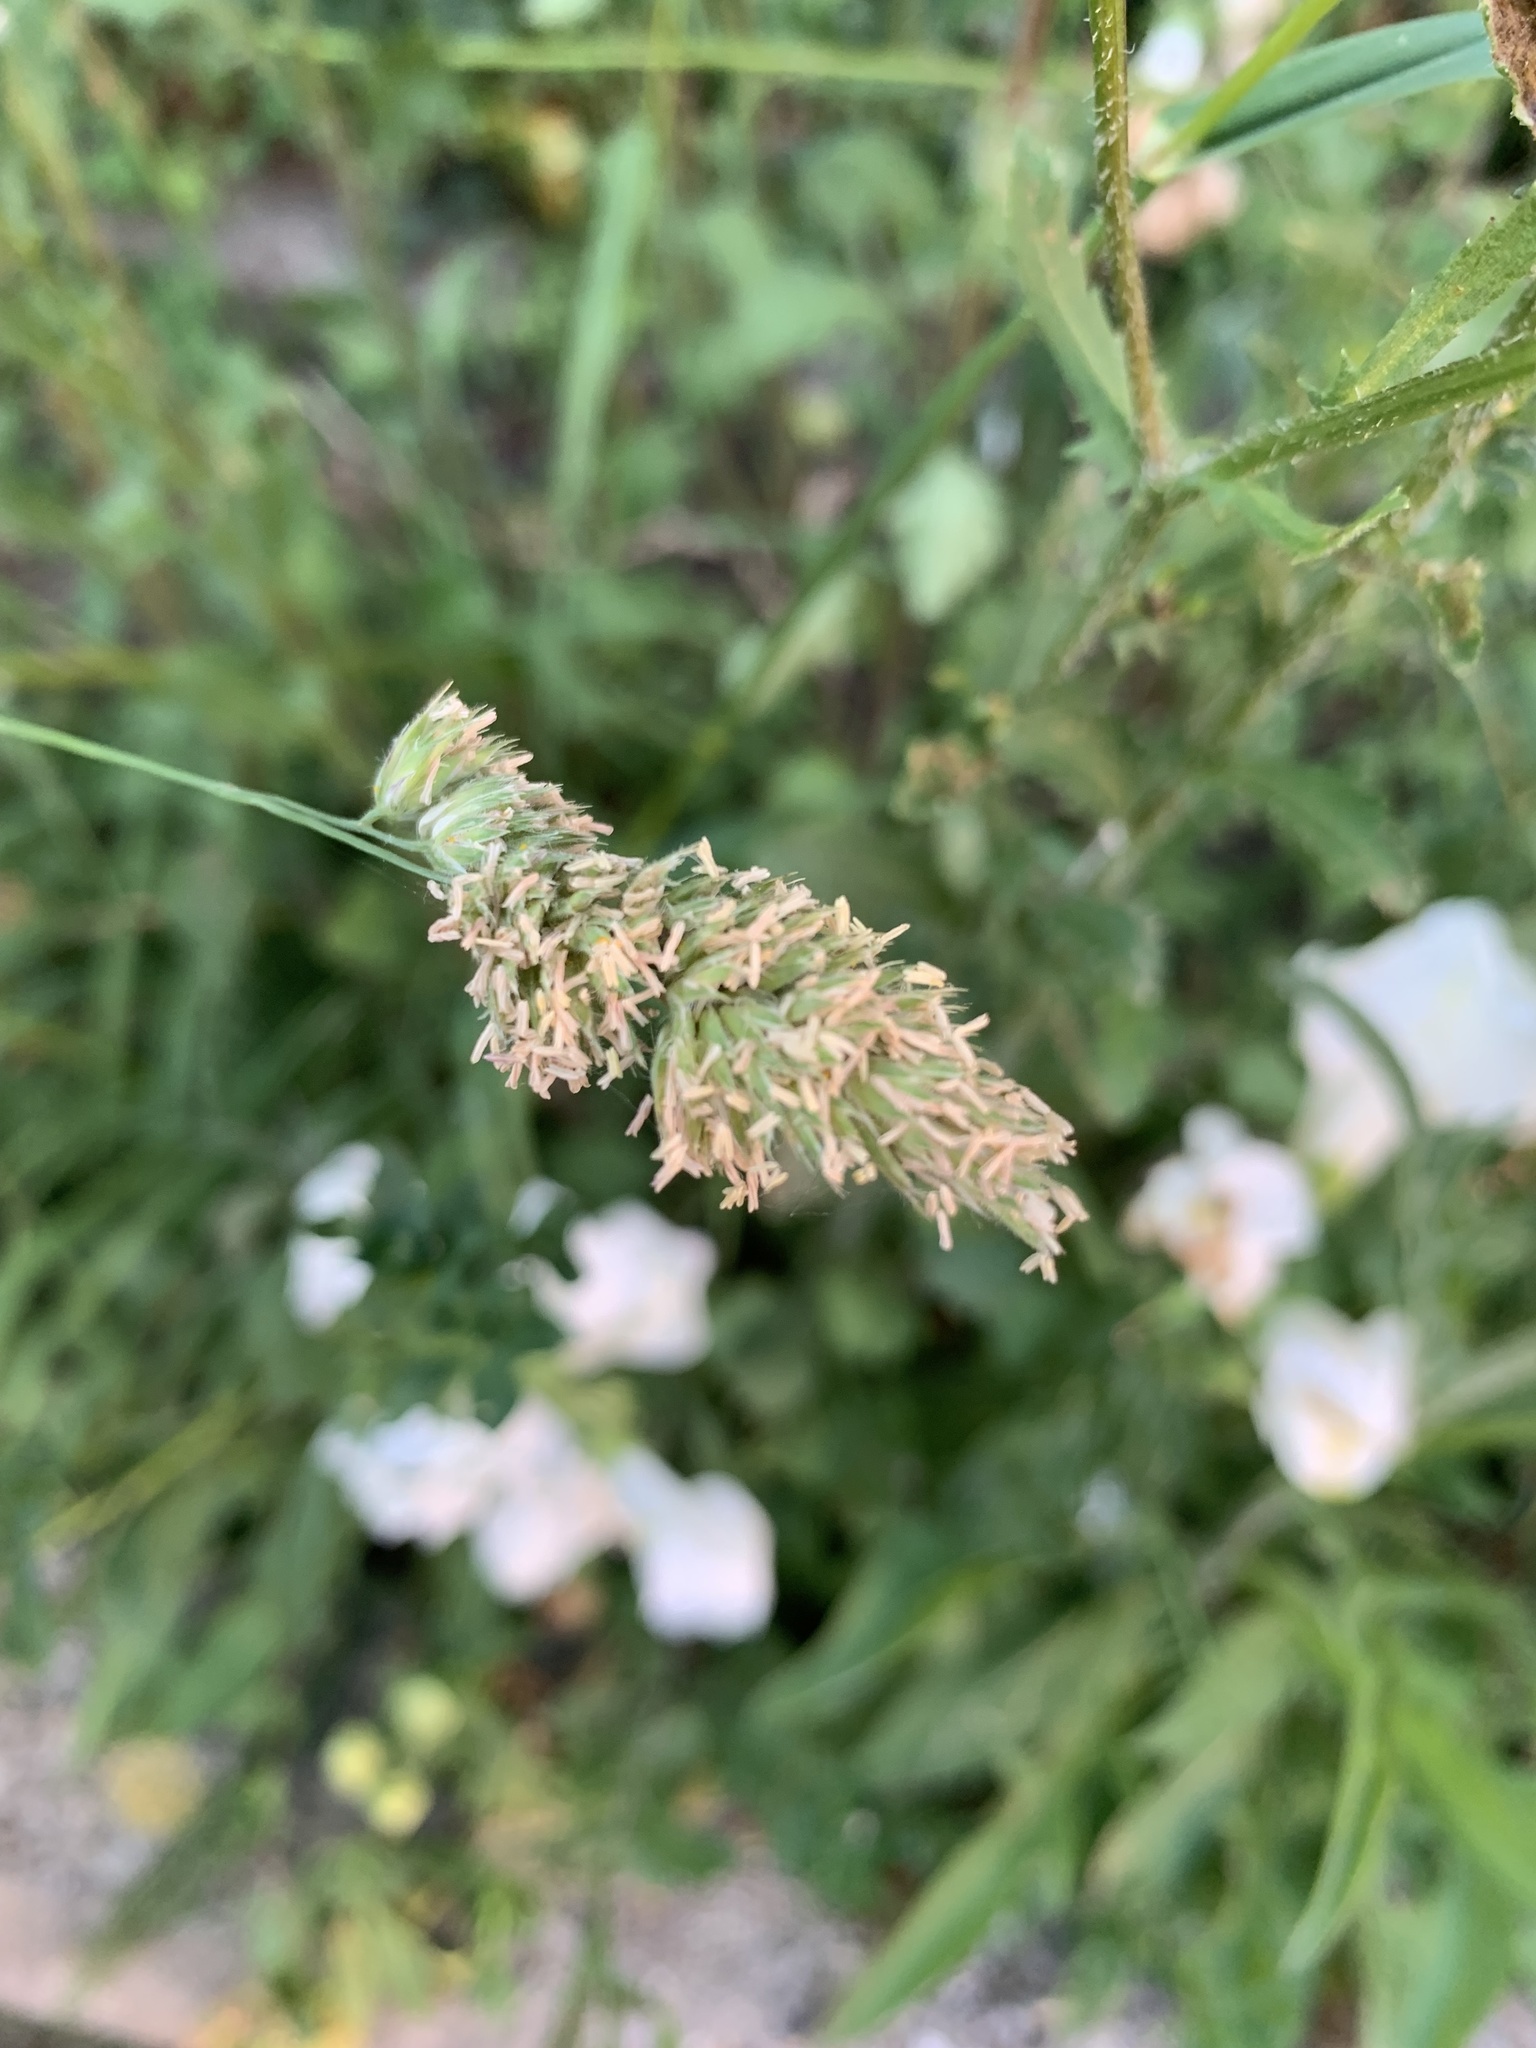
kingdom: Plantae
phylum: Tracheophyta
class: Liliopsida
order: Poales
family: Poaceae
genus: Dactylis
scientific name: Dactylis glomerata
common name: Orchardgrass
